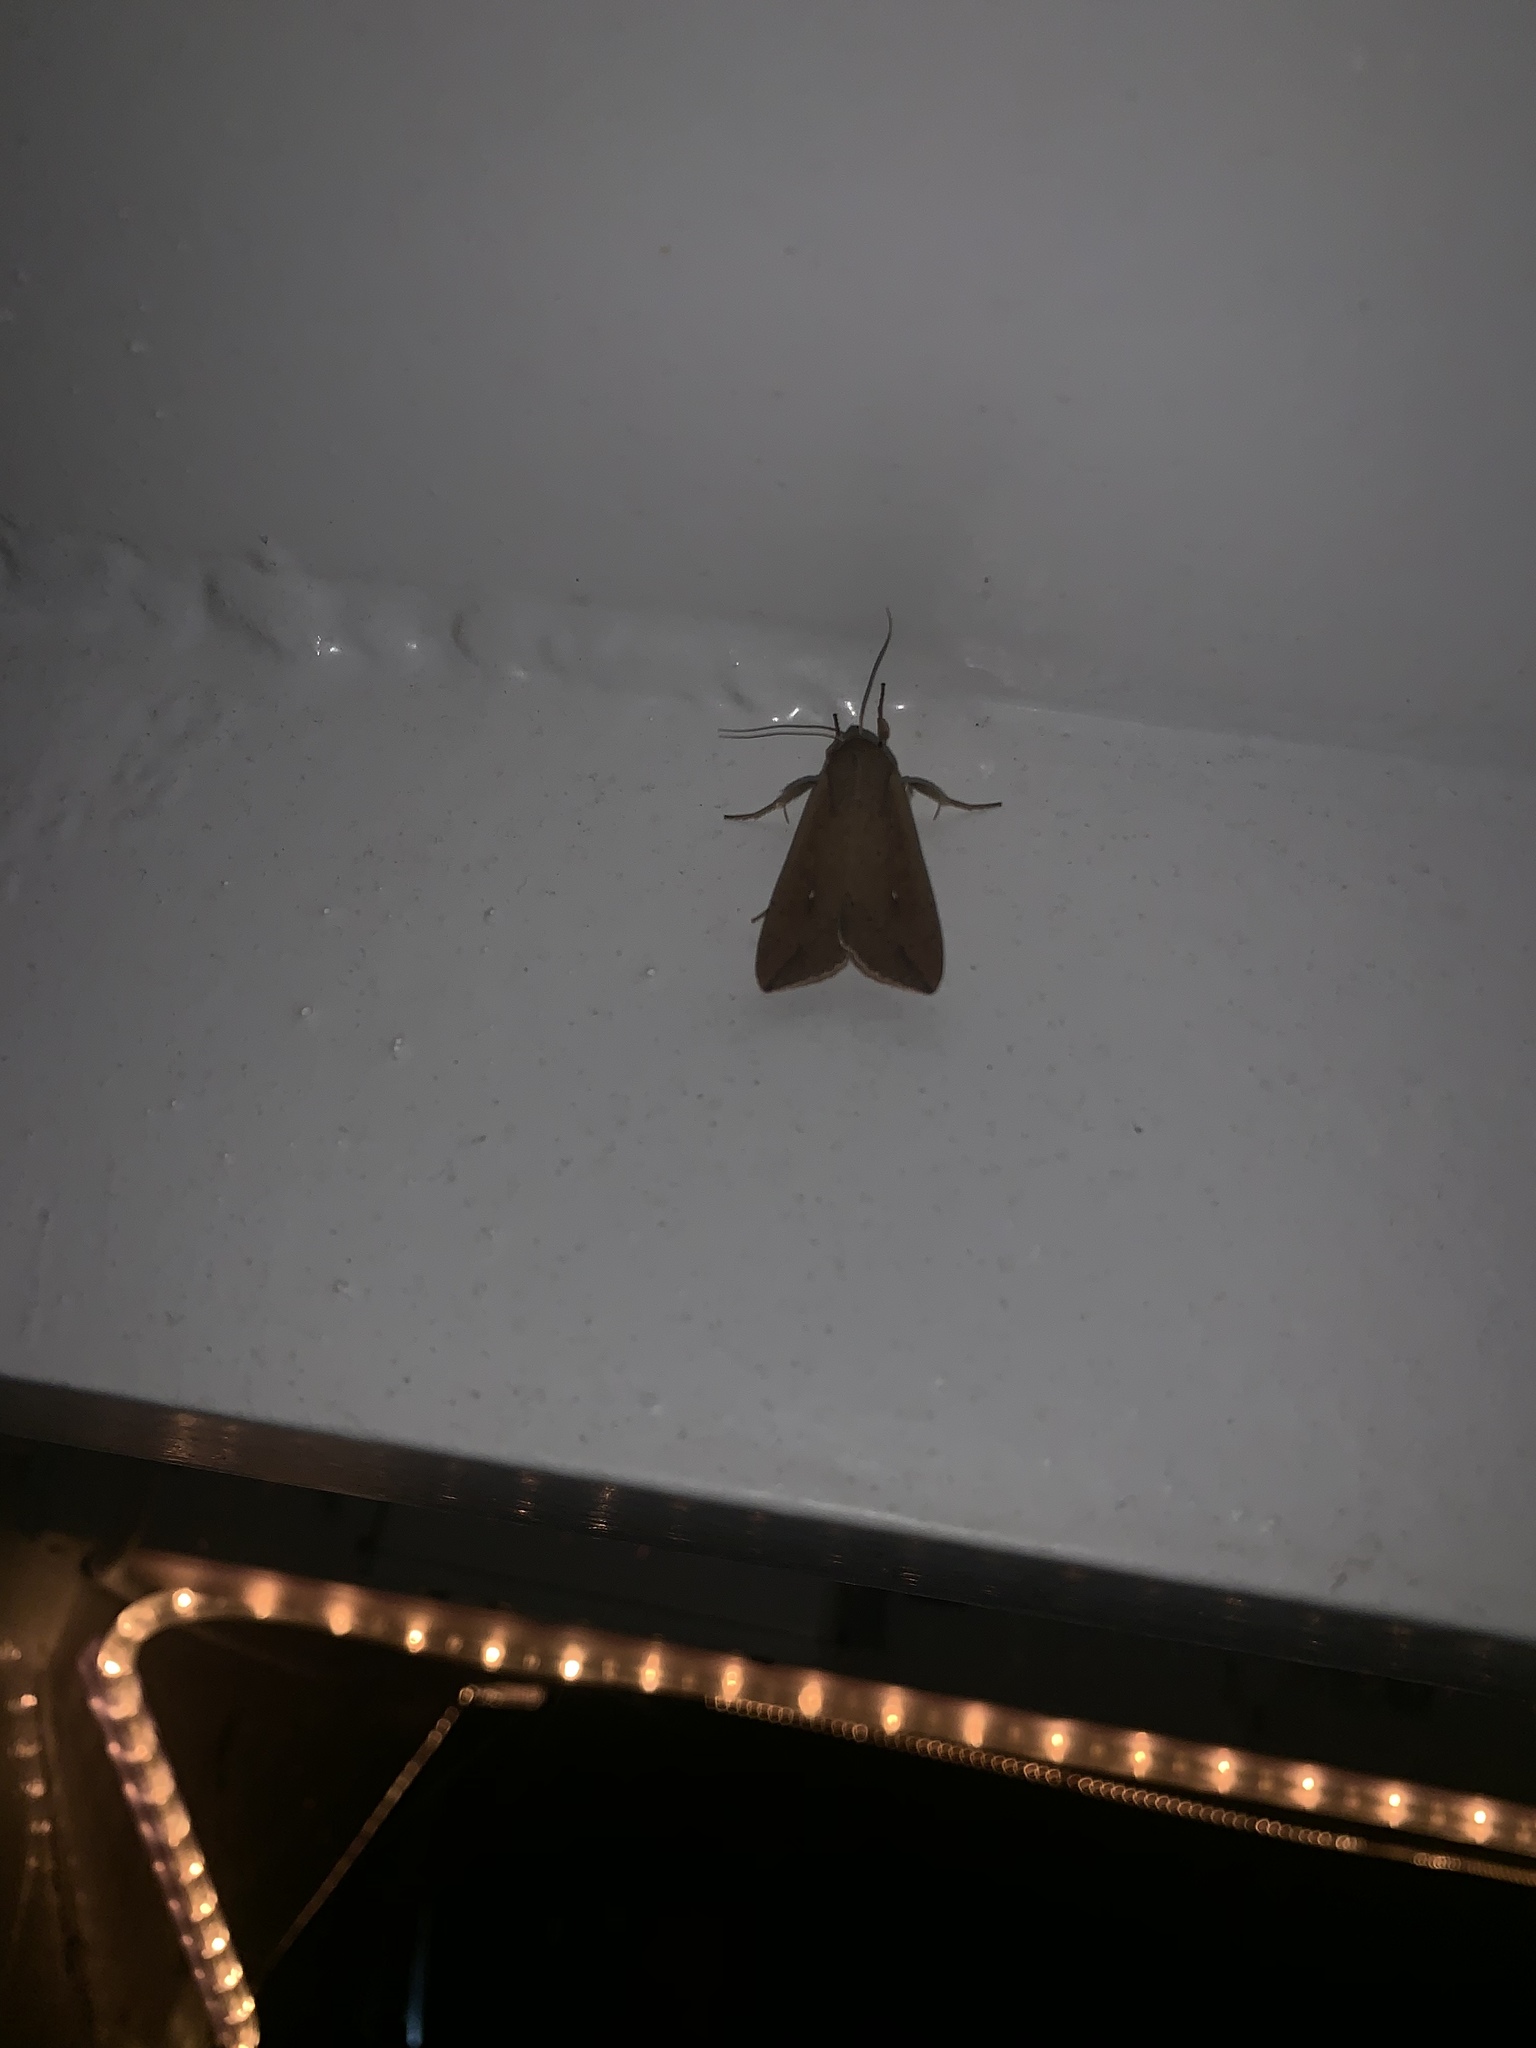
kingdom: Animalia
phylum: Arthropoda
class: Insecta
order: Lepidoptera
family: Noctuidae
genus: Mythimna
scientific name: Mythimna unipuncta
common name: White-speck
